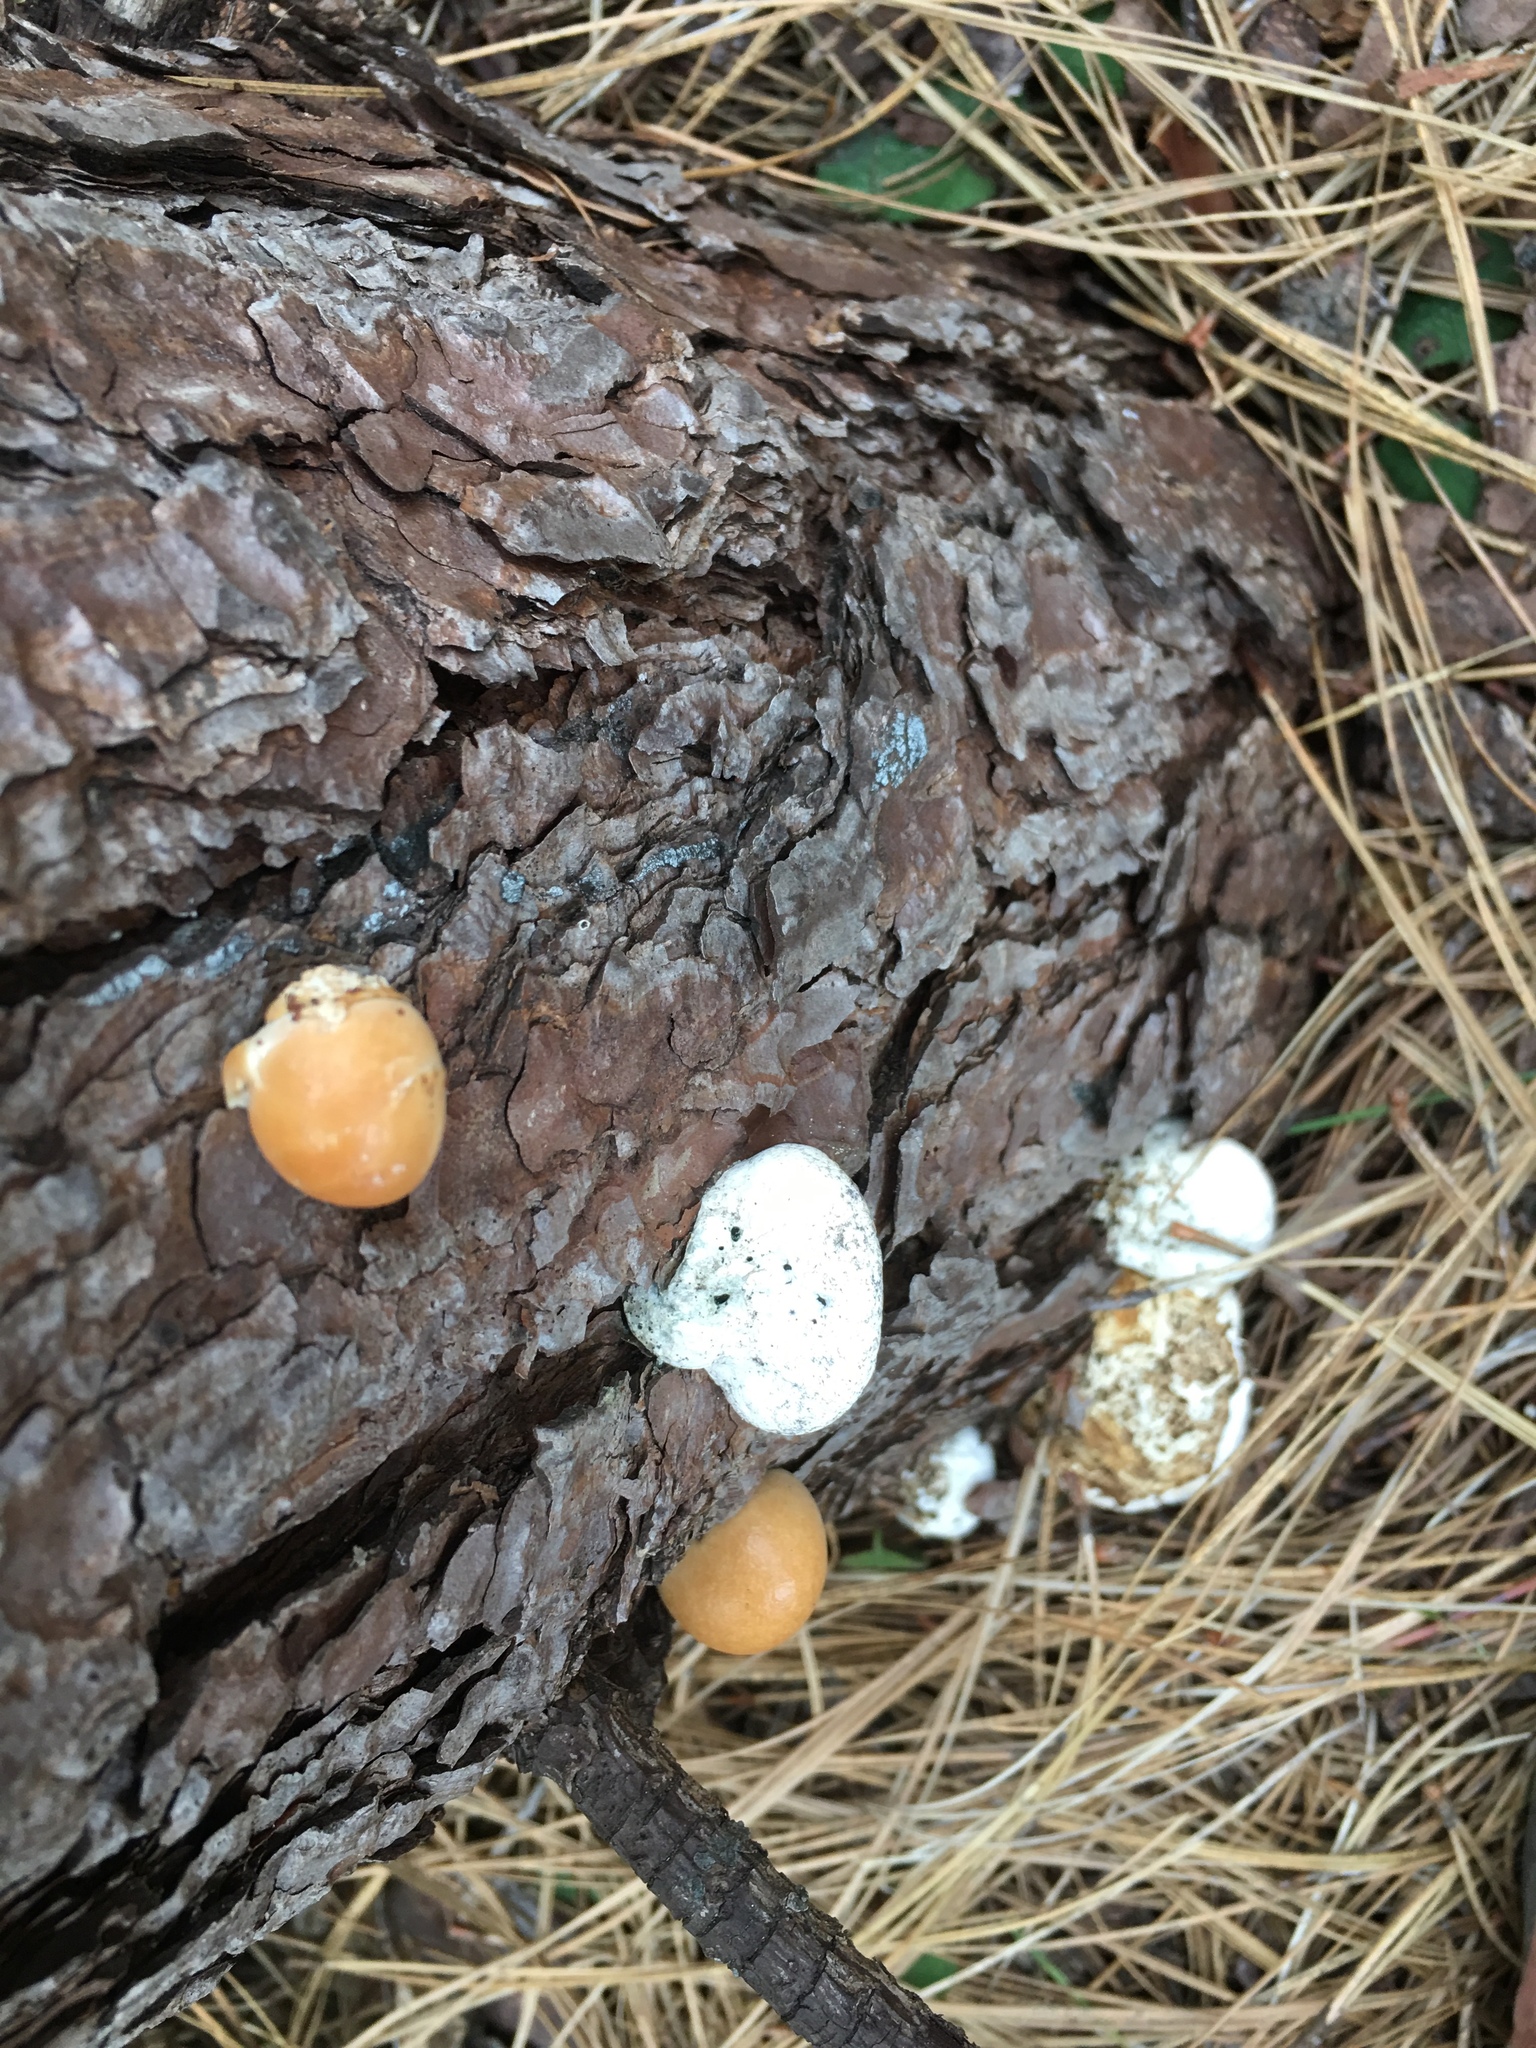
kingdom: Fungi
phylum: Basidiomycota
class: Agaricomycetes
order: Polyporales
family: Polyporaceae
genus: Cryptoporus
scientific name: Cryptoporus volvatus
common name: Veiled polypore
